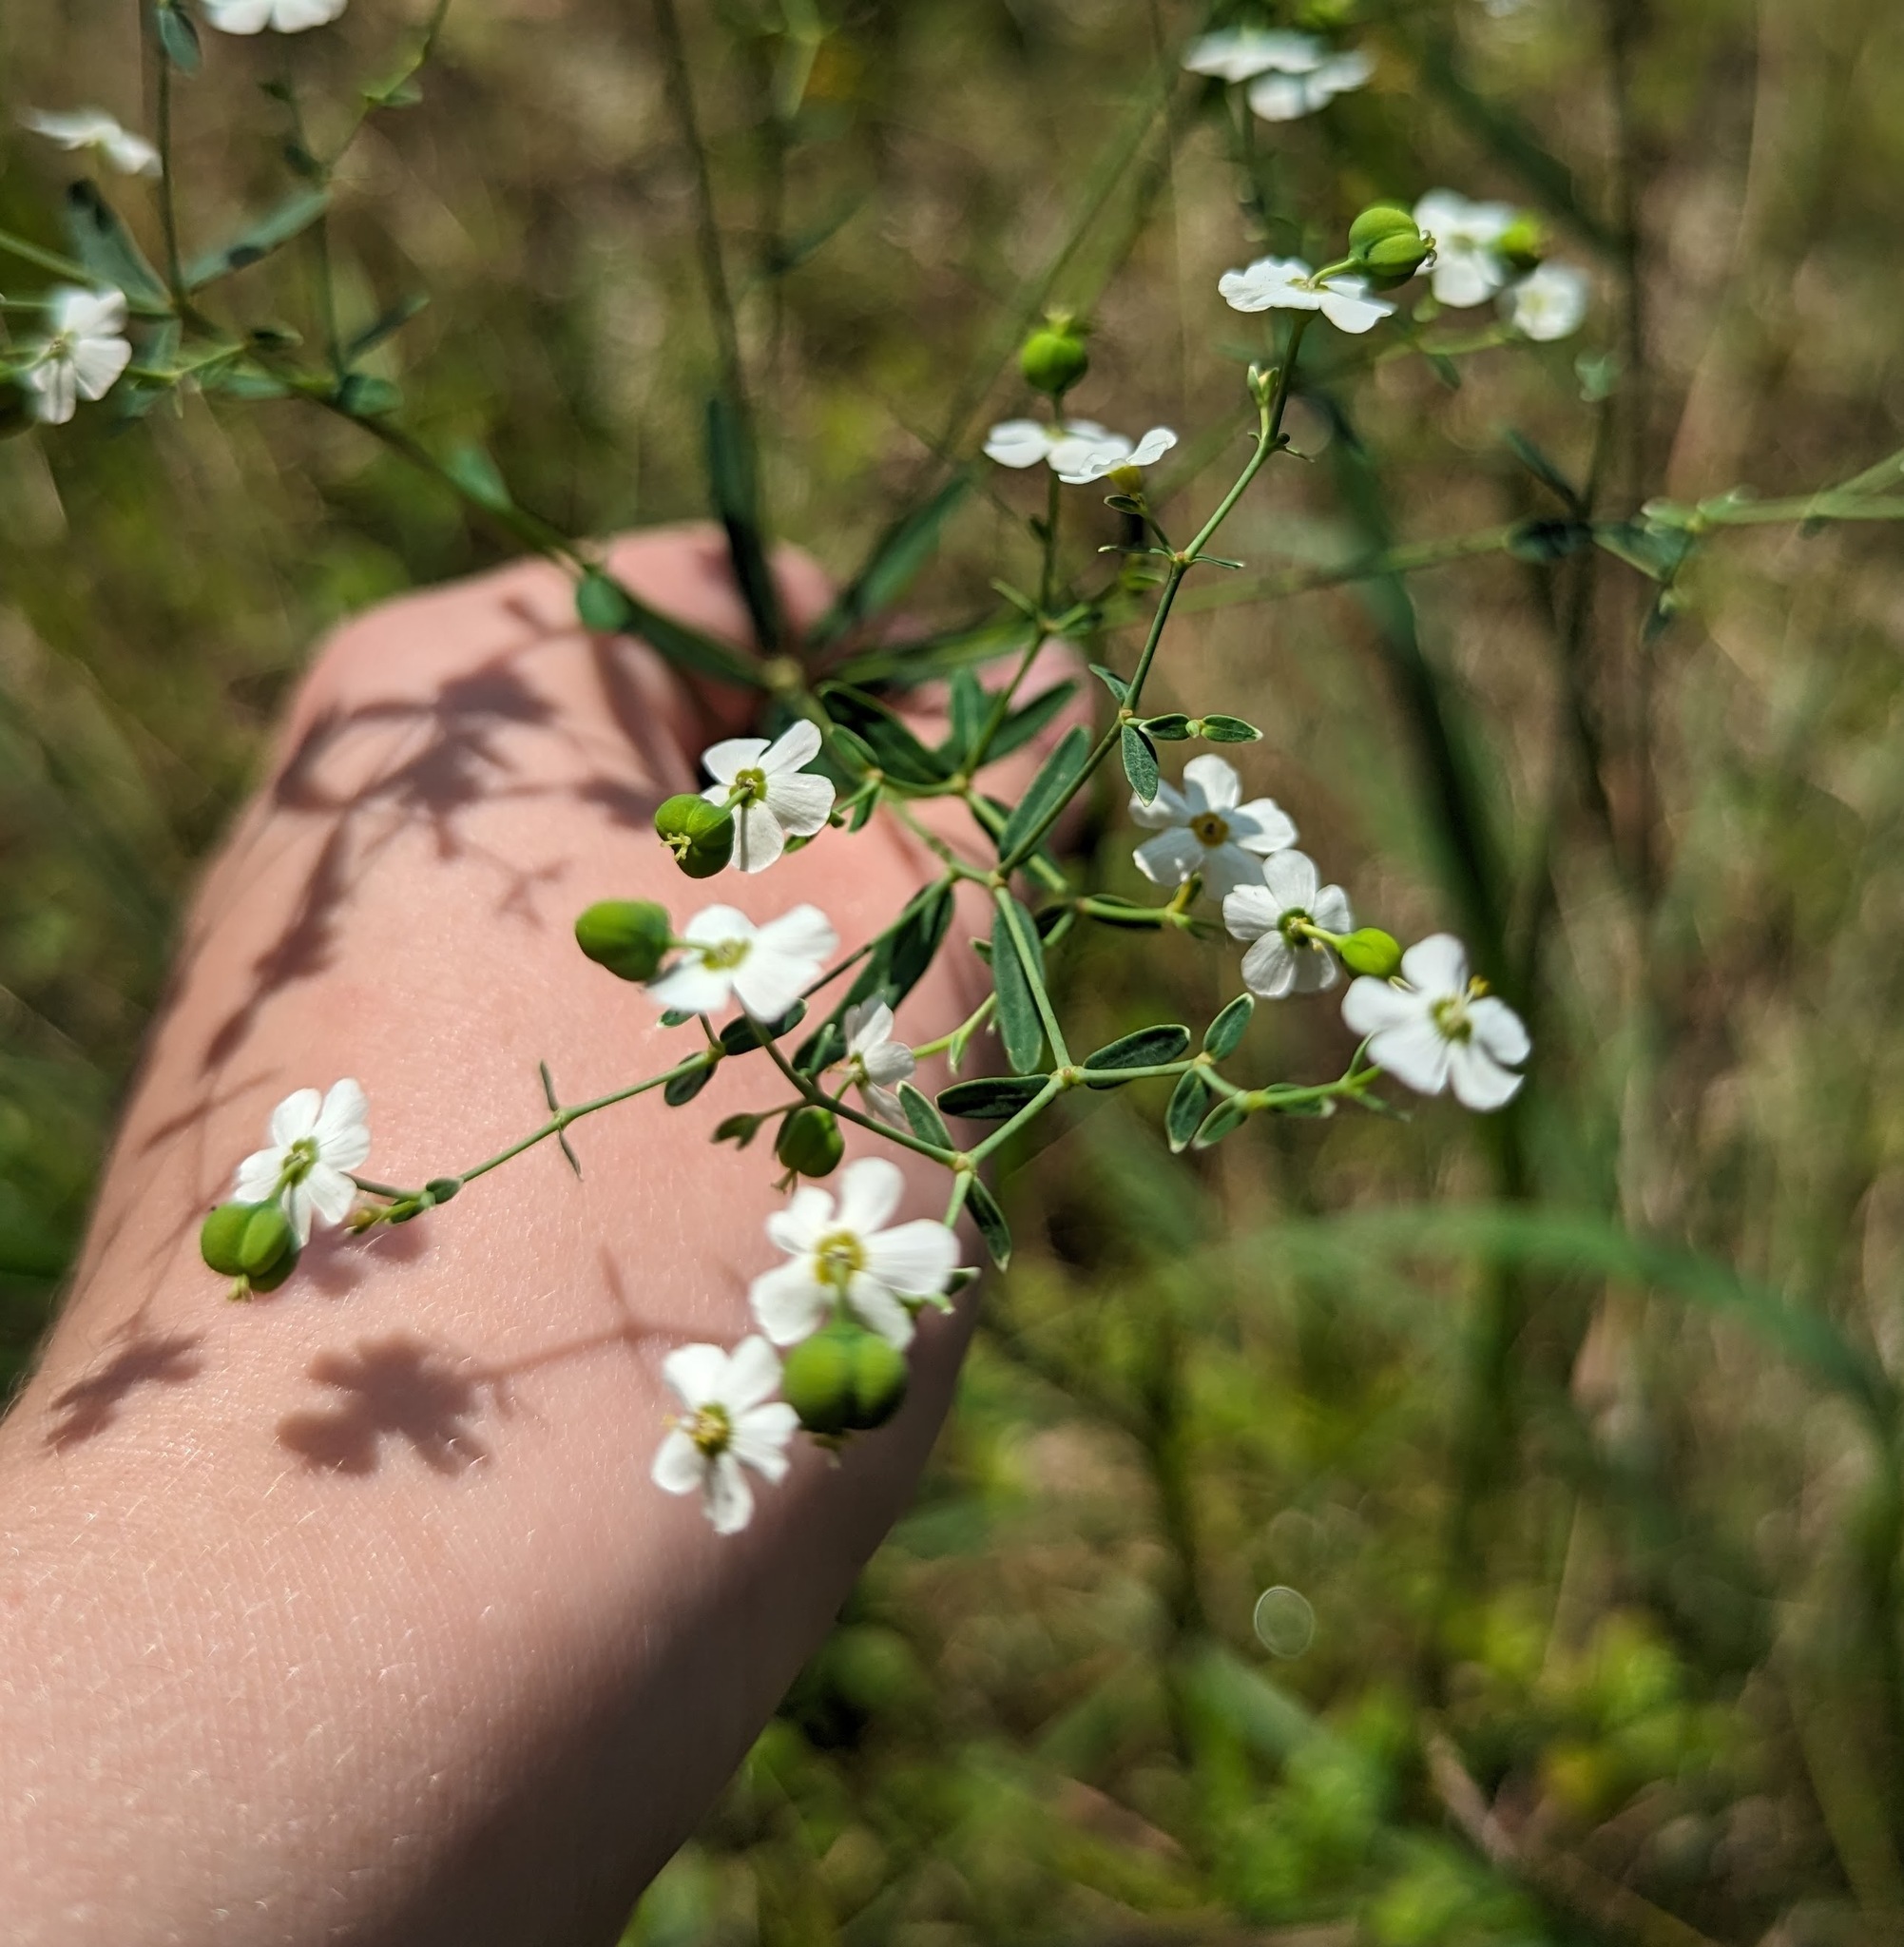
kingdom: Plantae
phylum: Tracheophyta
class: Magnoliopsida
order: Malpighiales
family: Euphorbiaceae
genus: Euphorbia
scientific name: Euphorbia corollata
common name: Flowering spurge
